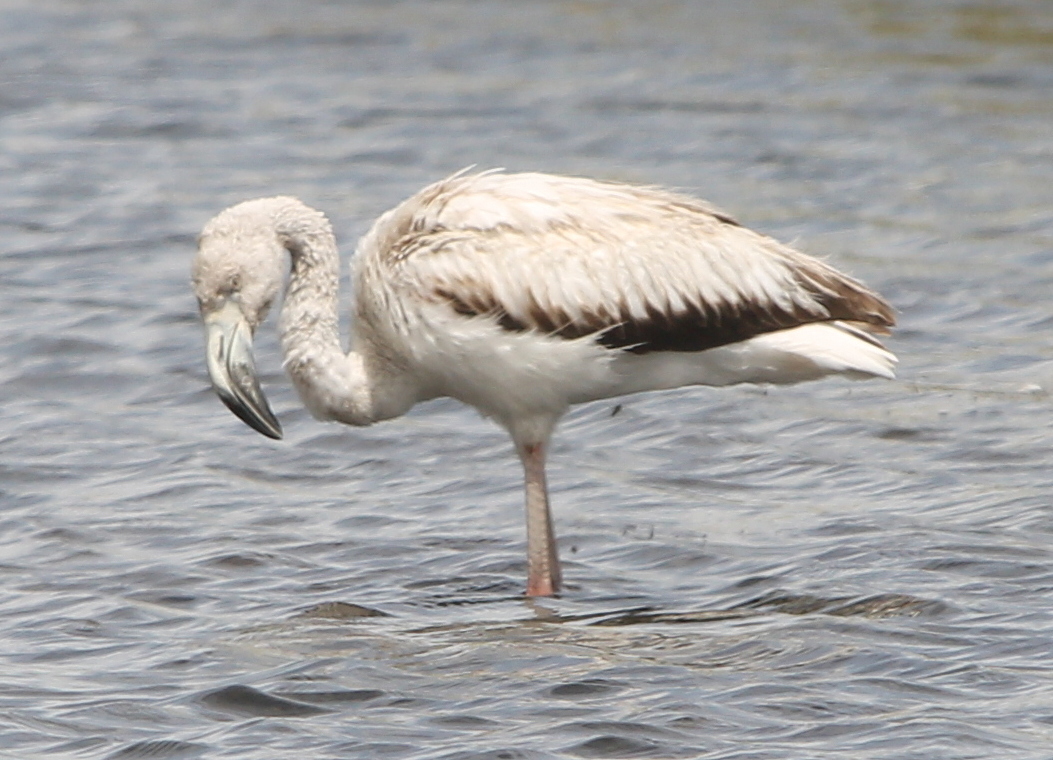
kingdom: Animalia
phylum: Chordata
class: Aves
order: Phoenicopteriformes
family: Phoenicopteridae
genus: Phoenicopterus
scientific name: Phoenicopterus chilensis
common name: Chilean flamingo
